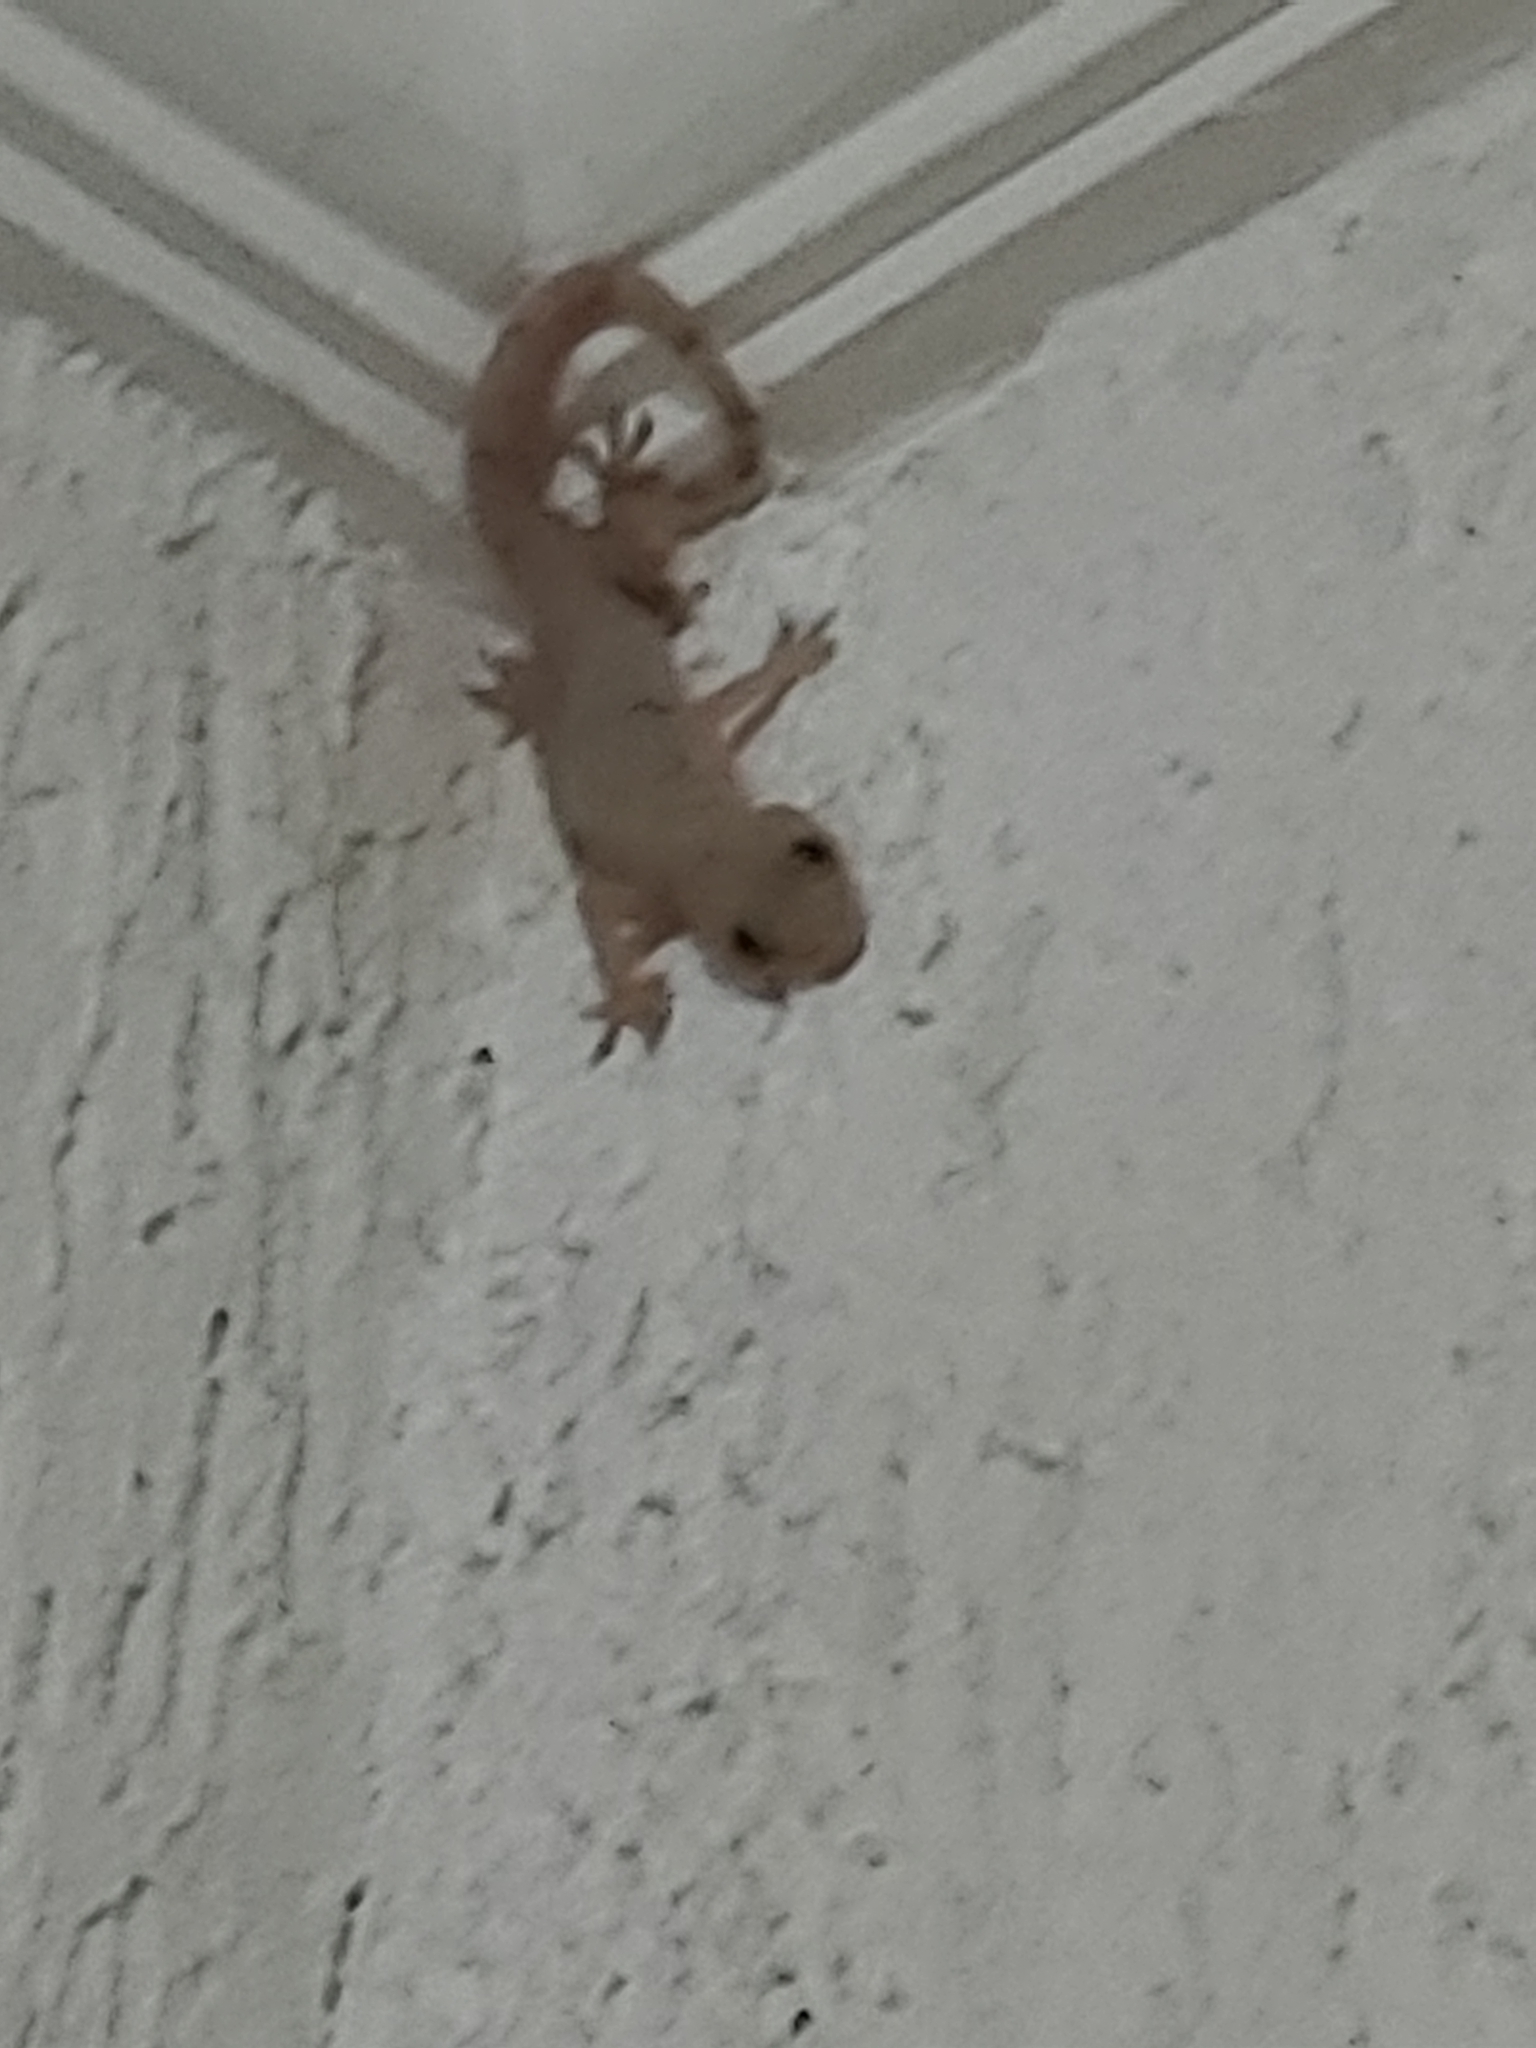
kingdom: Animalia
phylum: Chordata
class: Squamata
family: Gekkonidae
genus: Hemidactylus
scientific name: Hemidactylus mabouia
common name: House gecko
